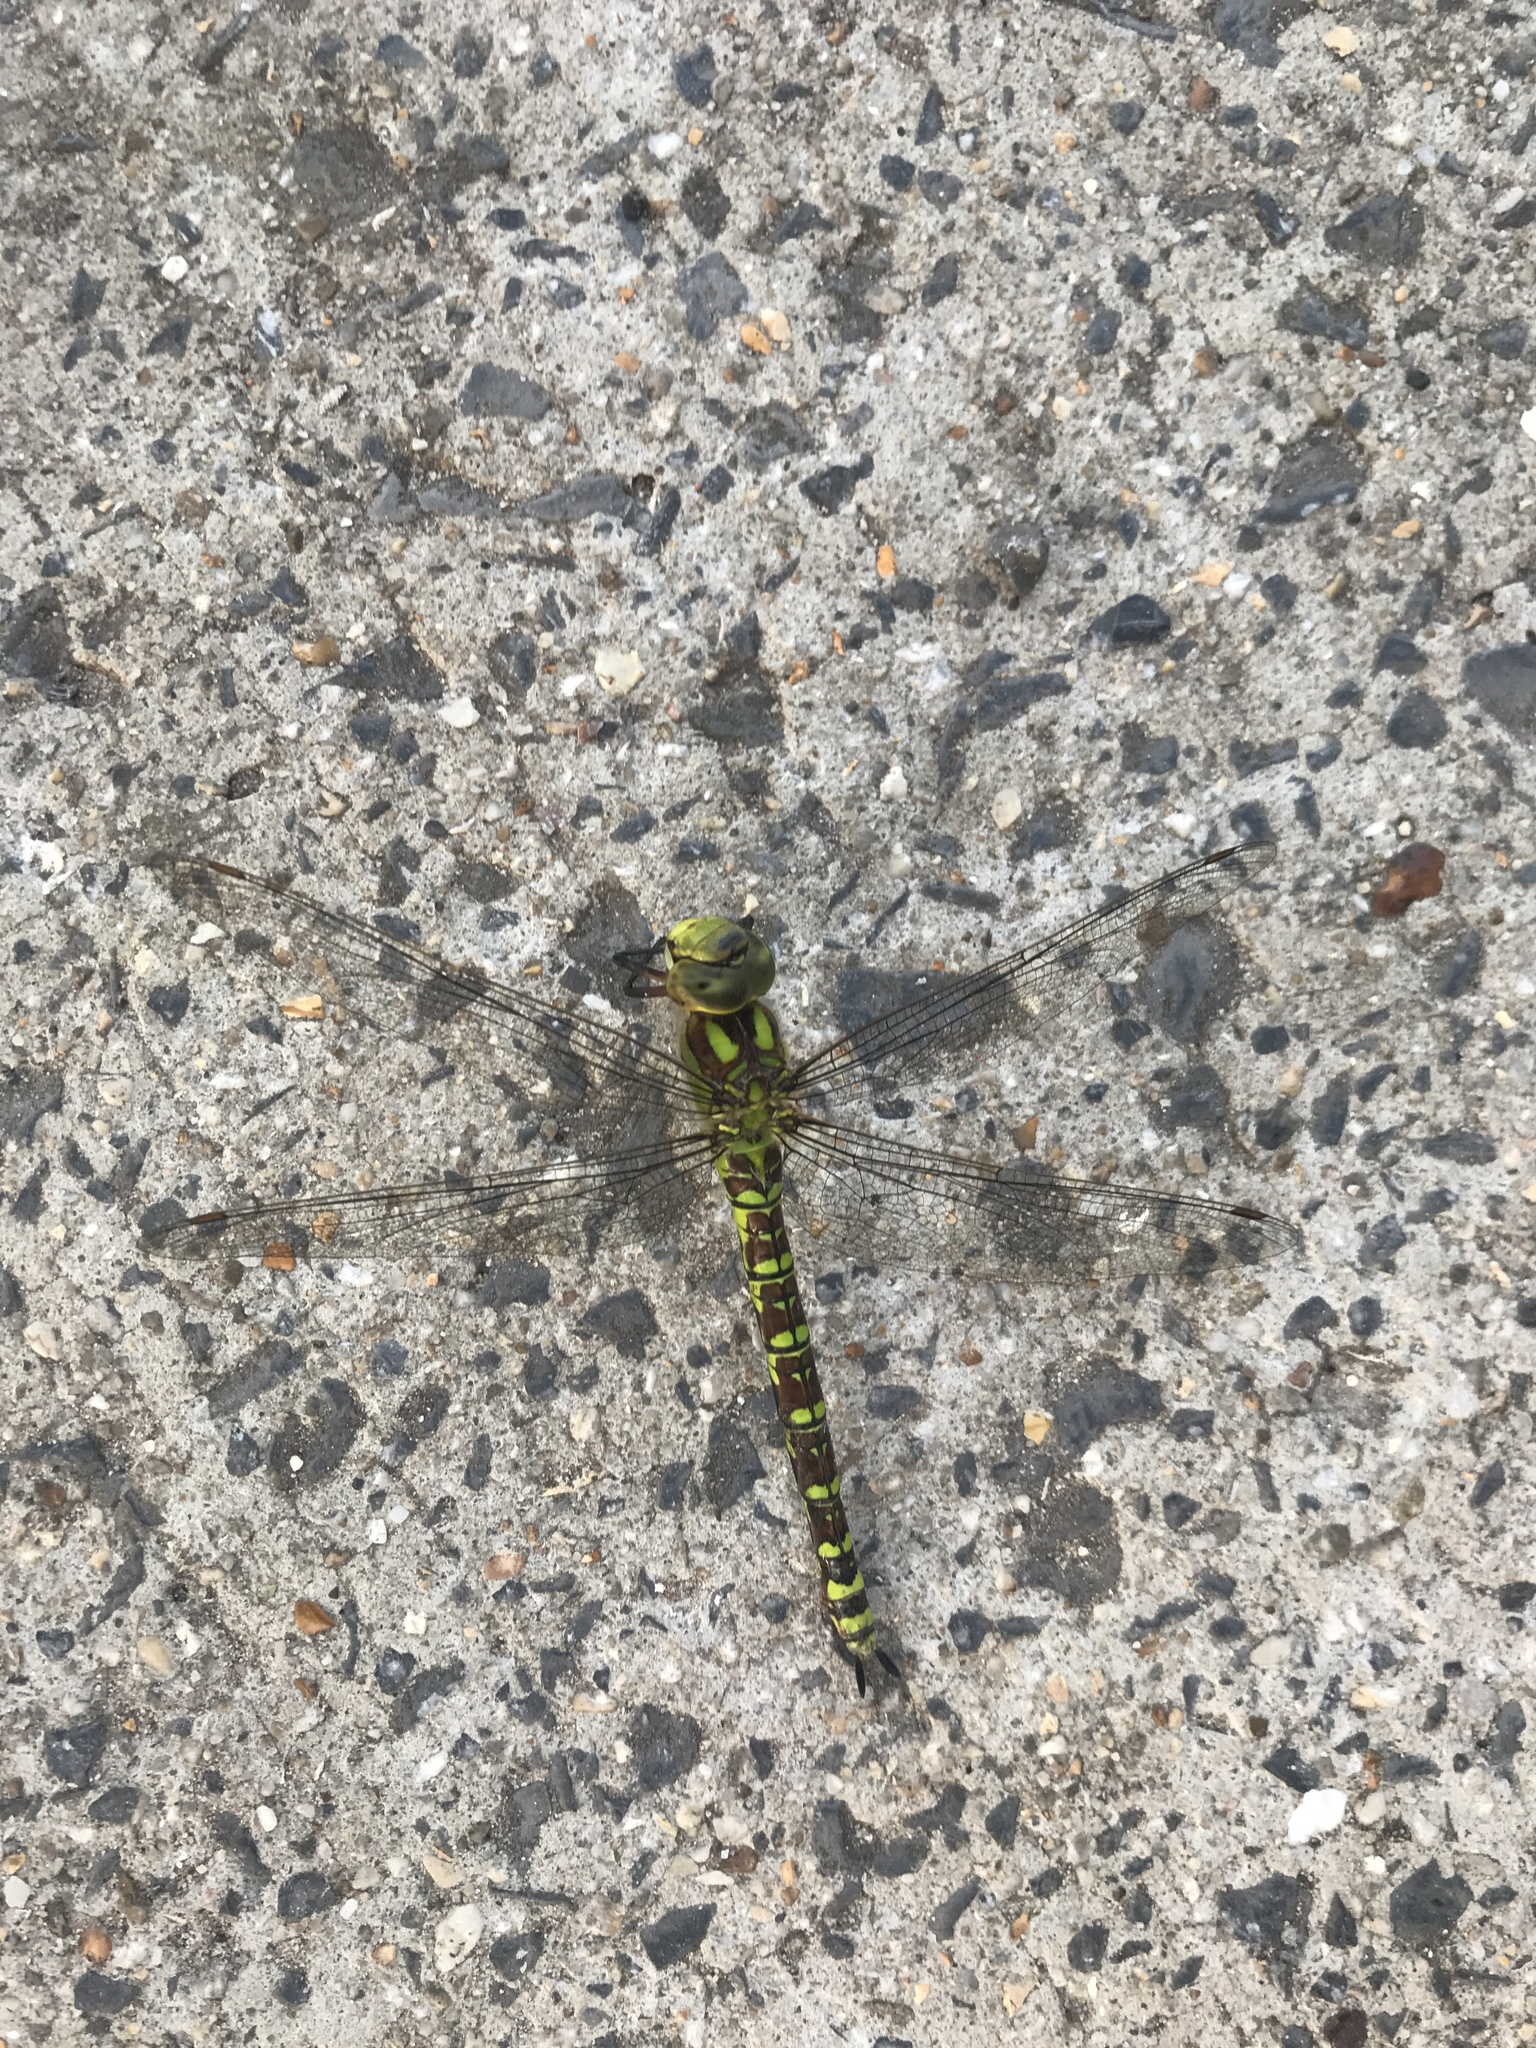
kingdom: Animalia
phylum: Arthropoda
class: Insecta
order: Odonata
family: Aeshnidae
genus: Aeshna
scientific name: Aeshna cyanea
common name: Southern hawker
